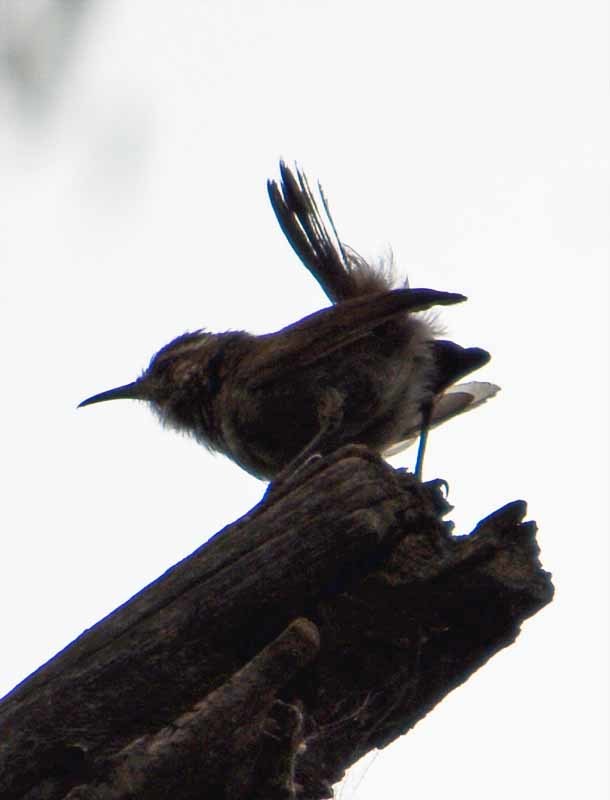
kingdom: Animalia
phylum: Chordata
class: Aves
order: Passeriformes
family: Troglodytidae
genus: Thryomanes
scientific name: Thryomanes bewickii
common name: Bewick's wren
